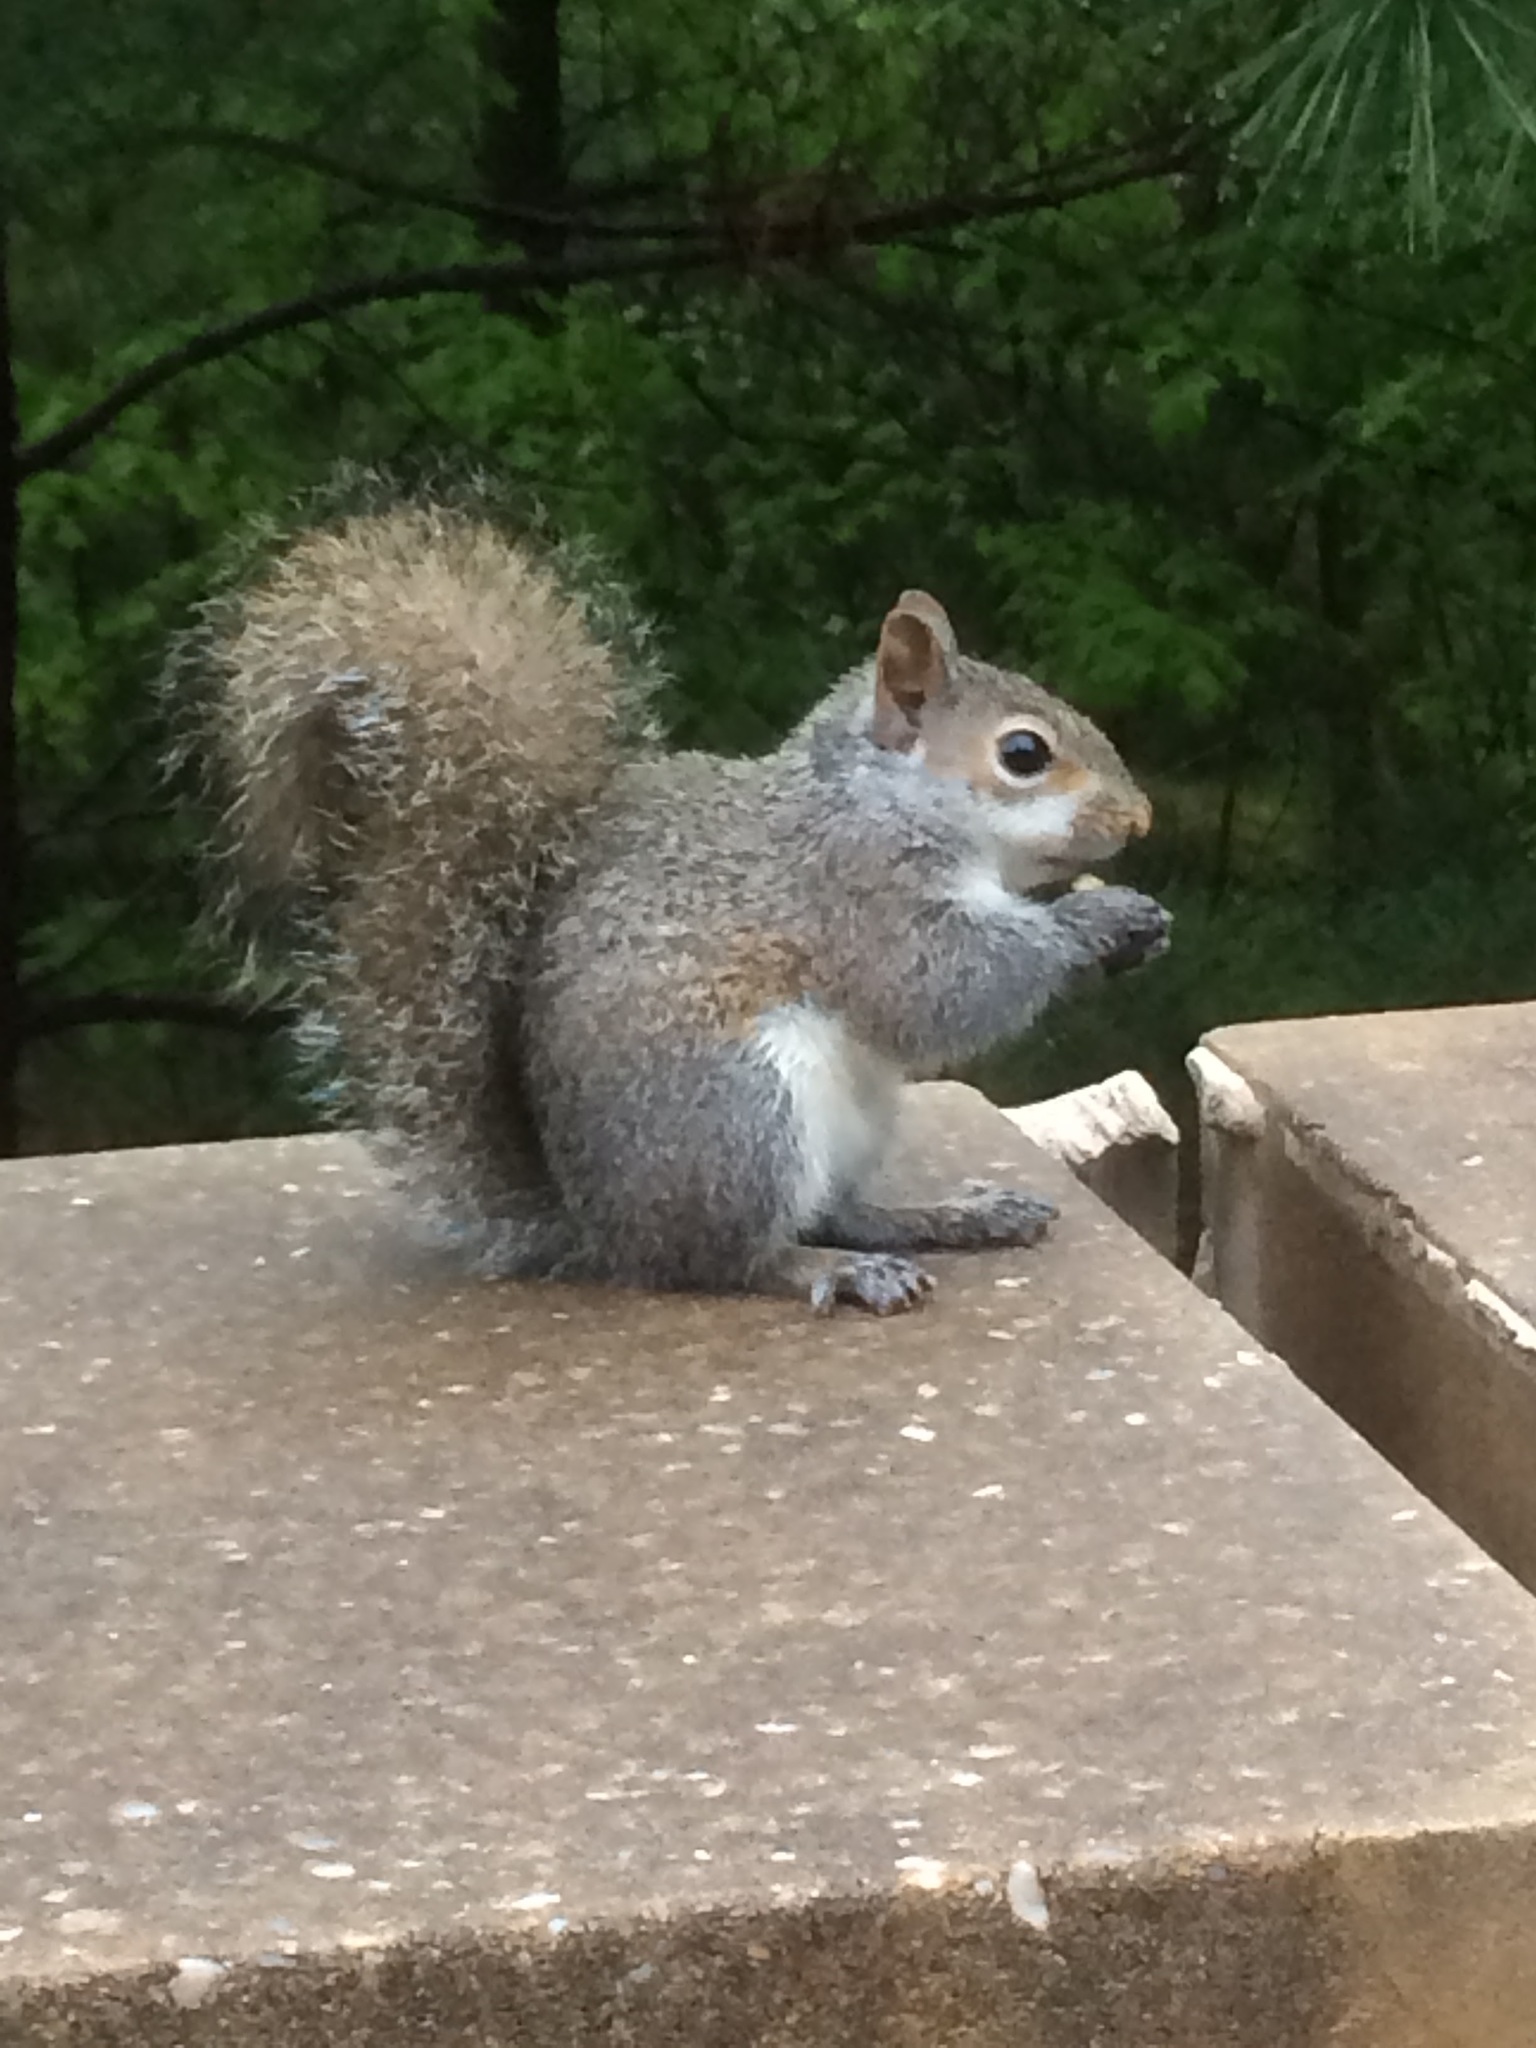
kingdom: Animalia
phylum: Chordata
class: Mammalia
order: Rodentia
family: Sciuridae
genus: Sciurus
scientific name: Sciurus carolinensis
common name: Eastern gray squirrel
